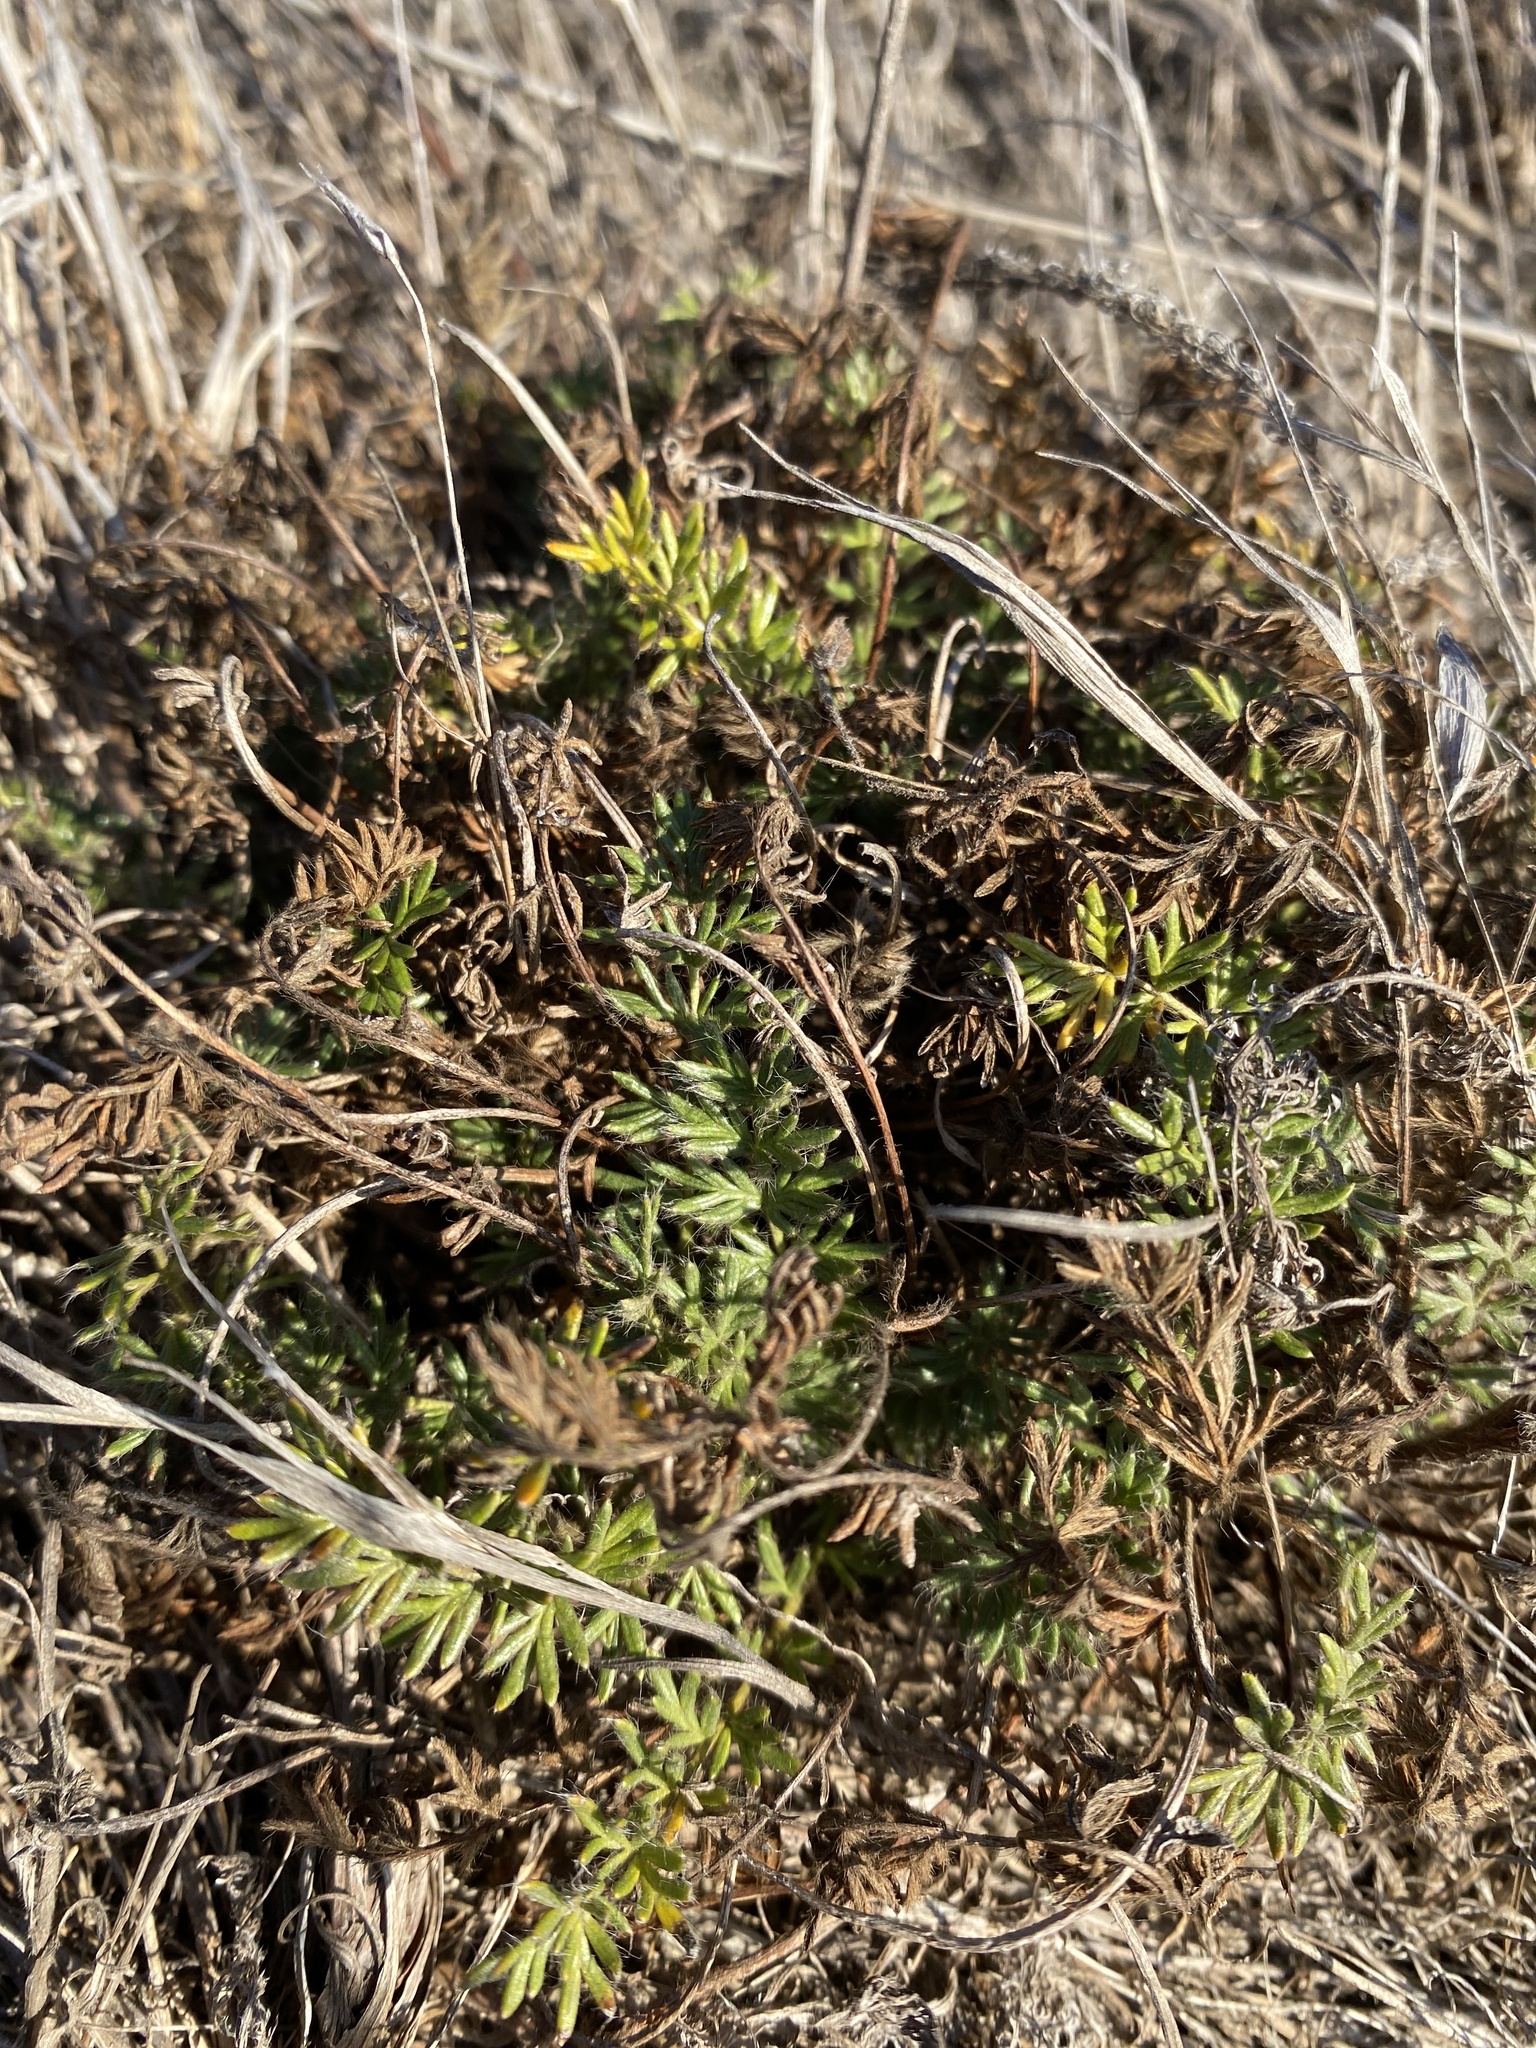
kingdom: Plantae
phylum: Tracheophyta
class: Magnoliopsida
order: Caryophyllales
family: Frankeniaceae
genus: Frankenia
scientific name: Frankenia salina
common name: Alkali seaheath
